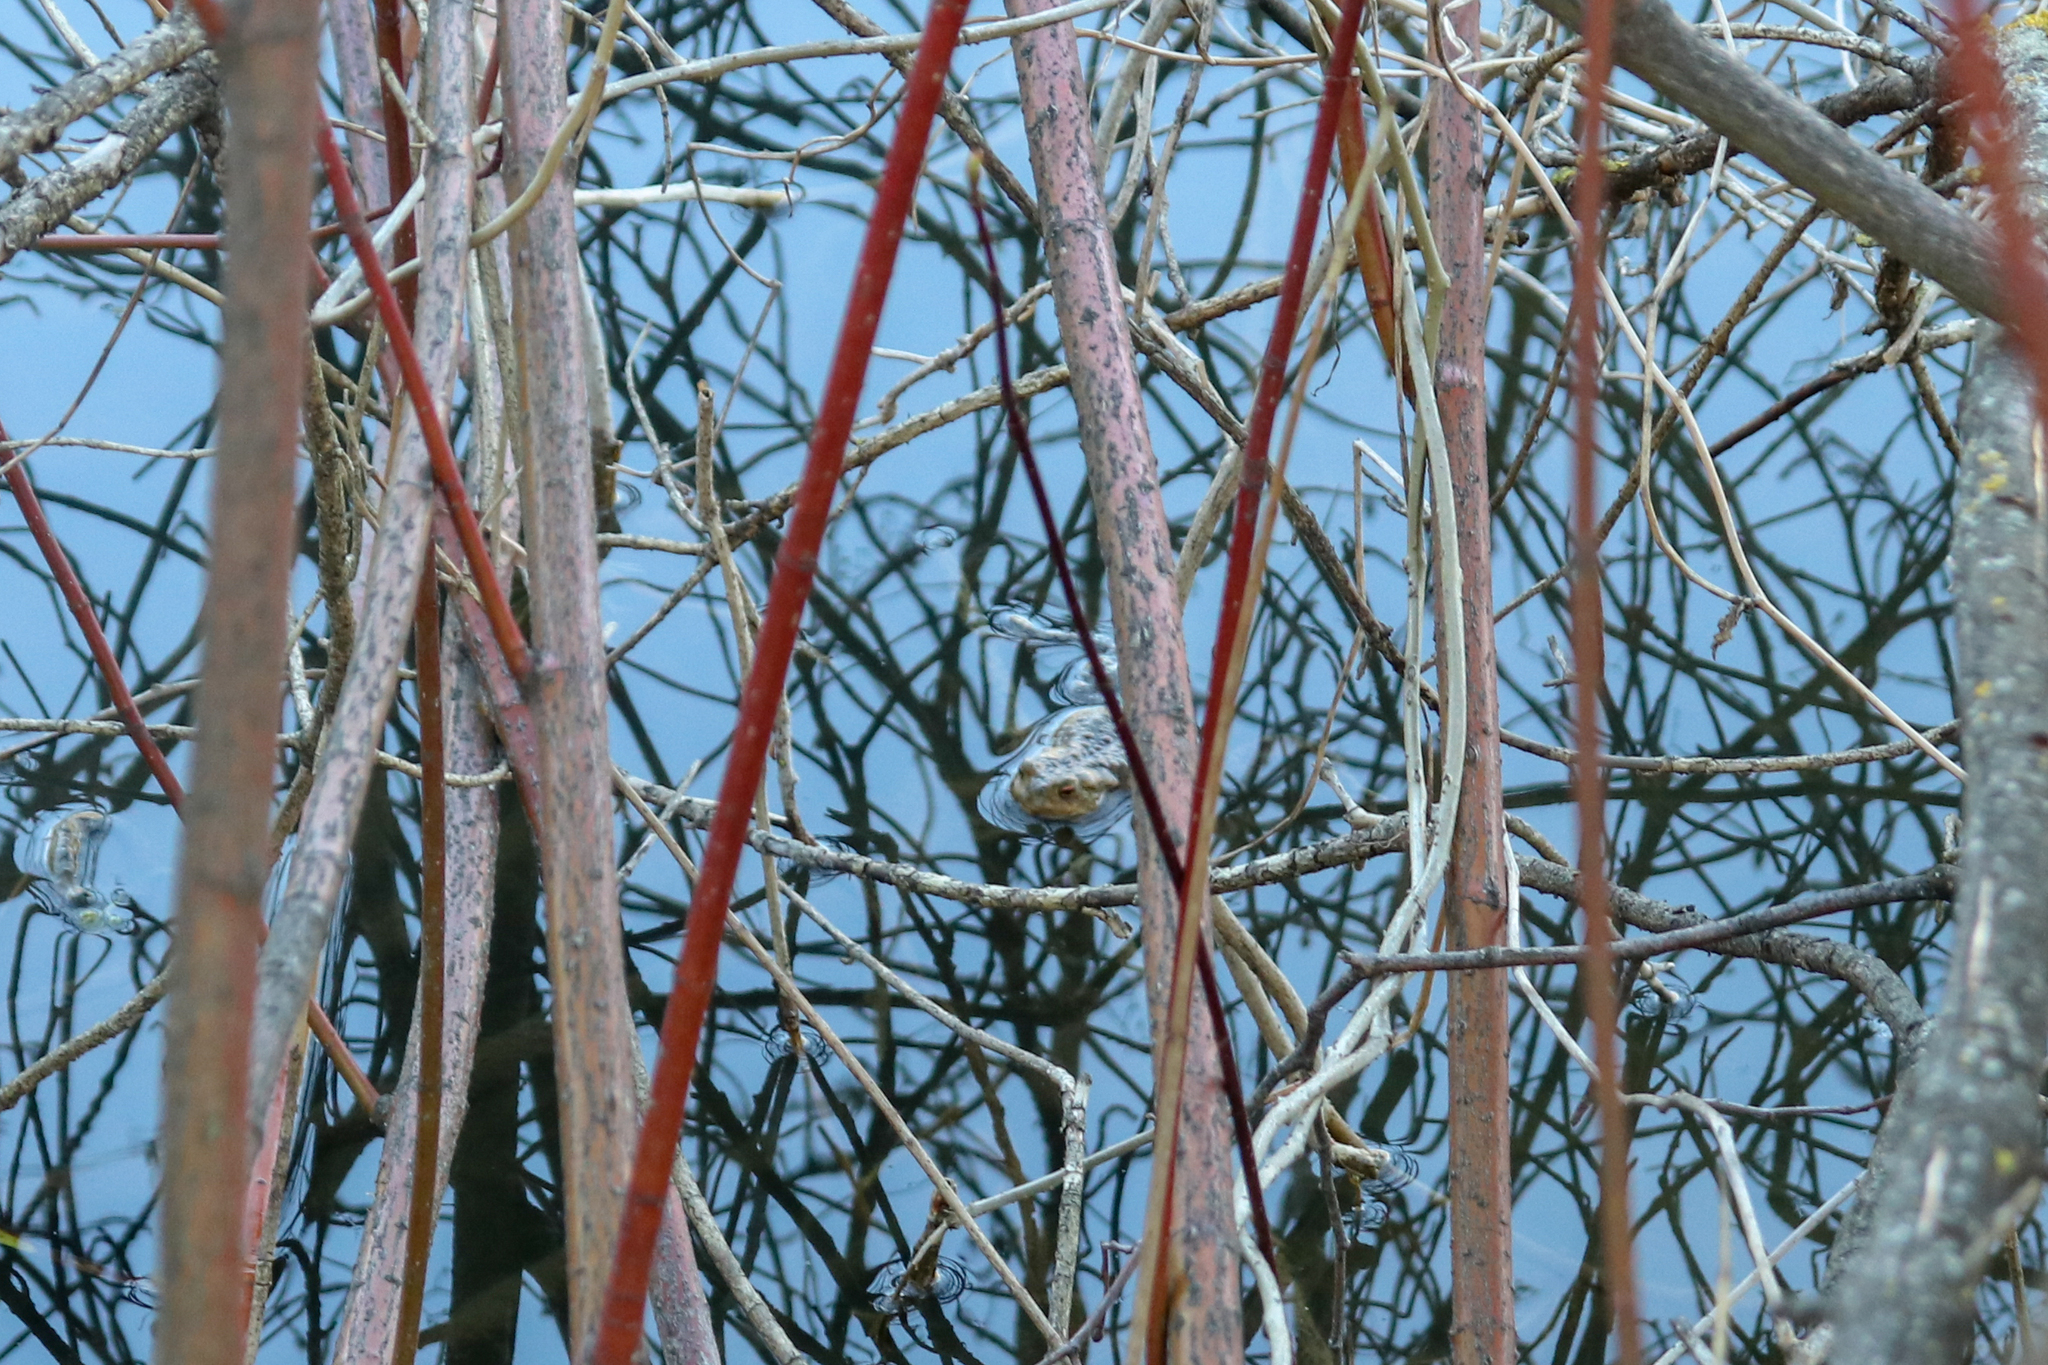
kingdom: Animalia
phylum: Chordata
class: Amphibia
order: Anura
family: Bufonidae
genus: Bufo
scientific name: Bufo bufo
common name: Common toad
